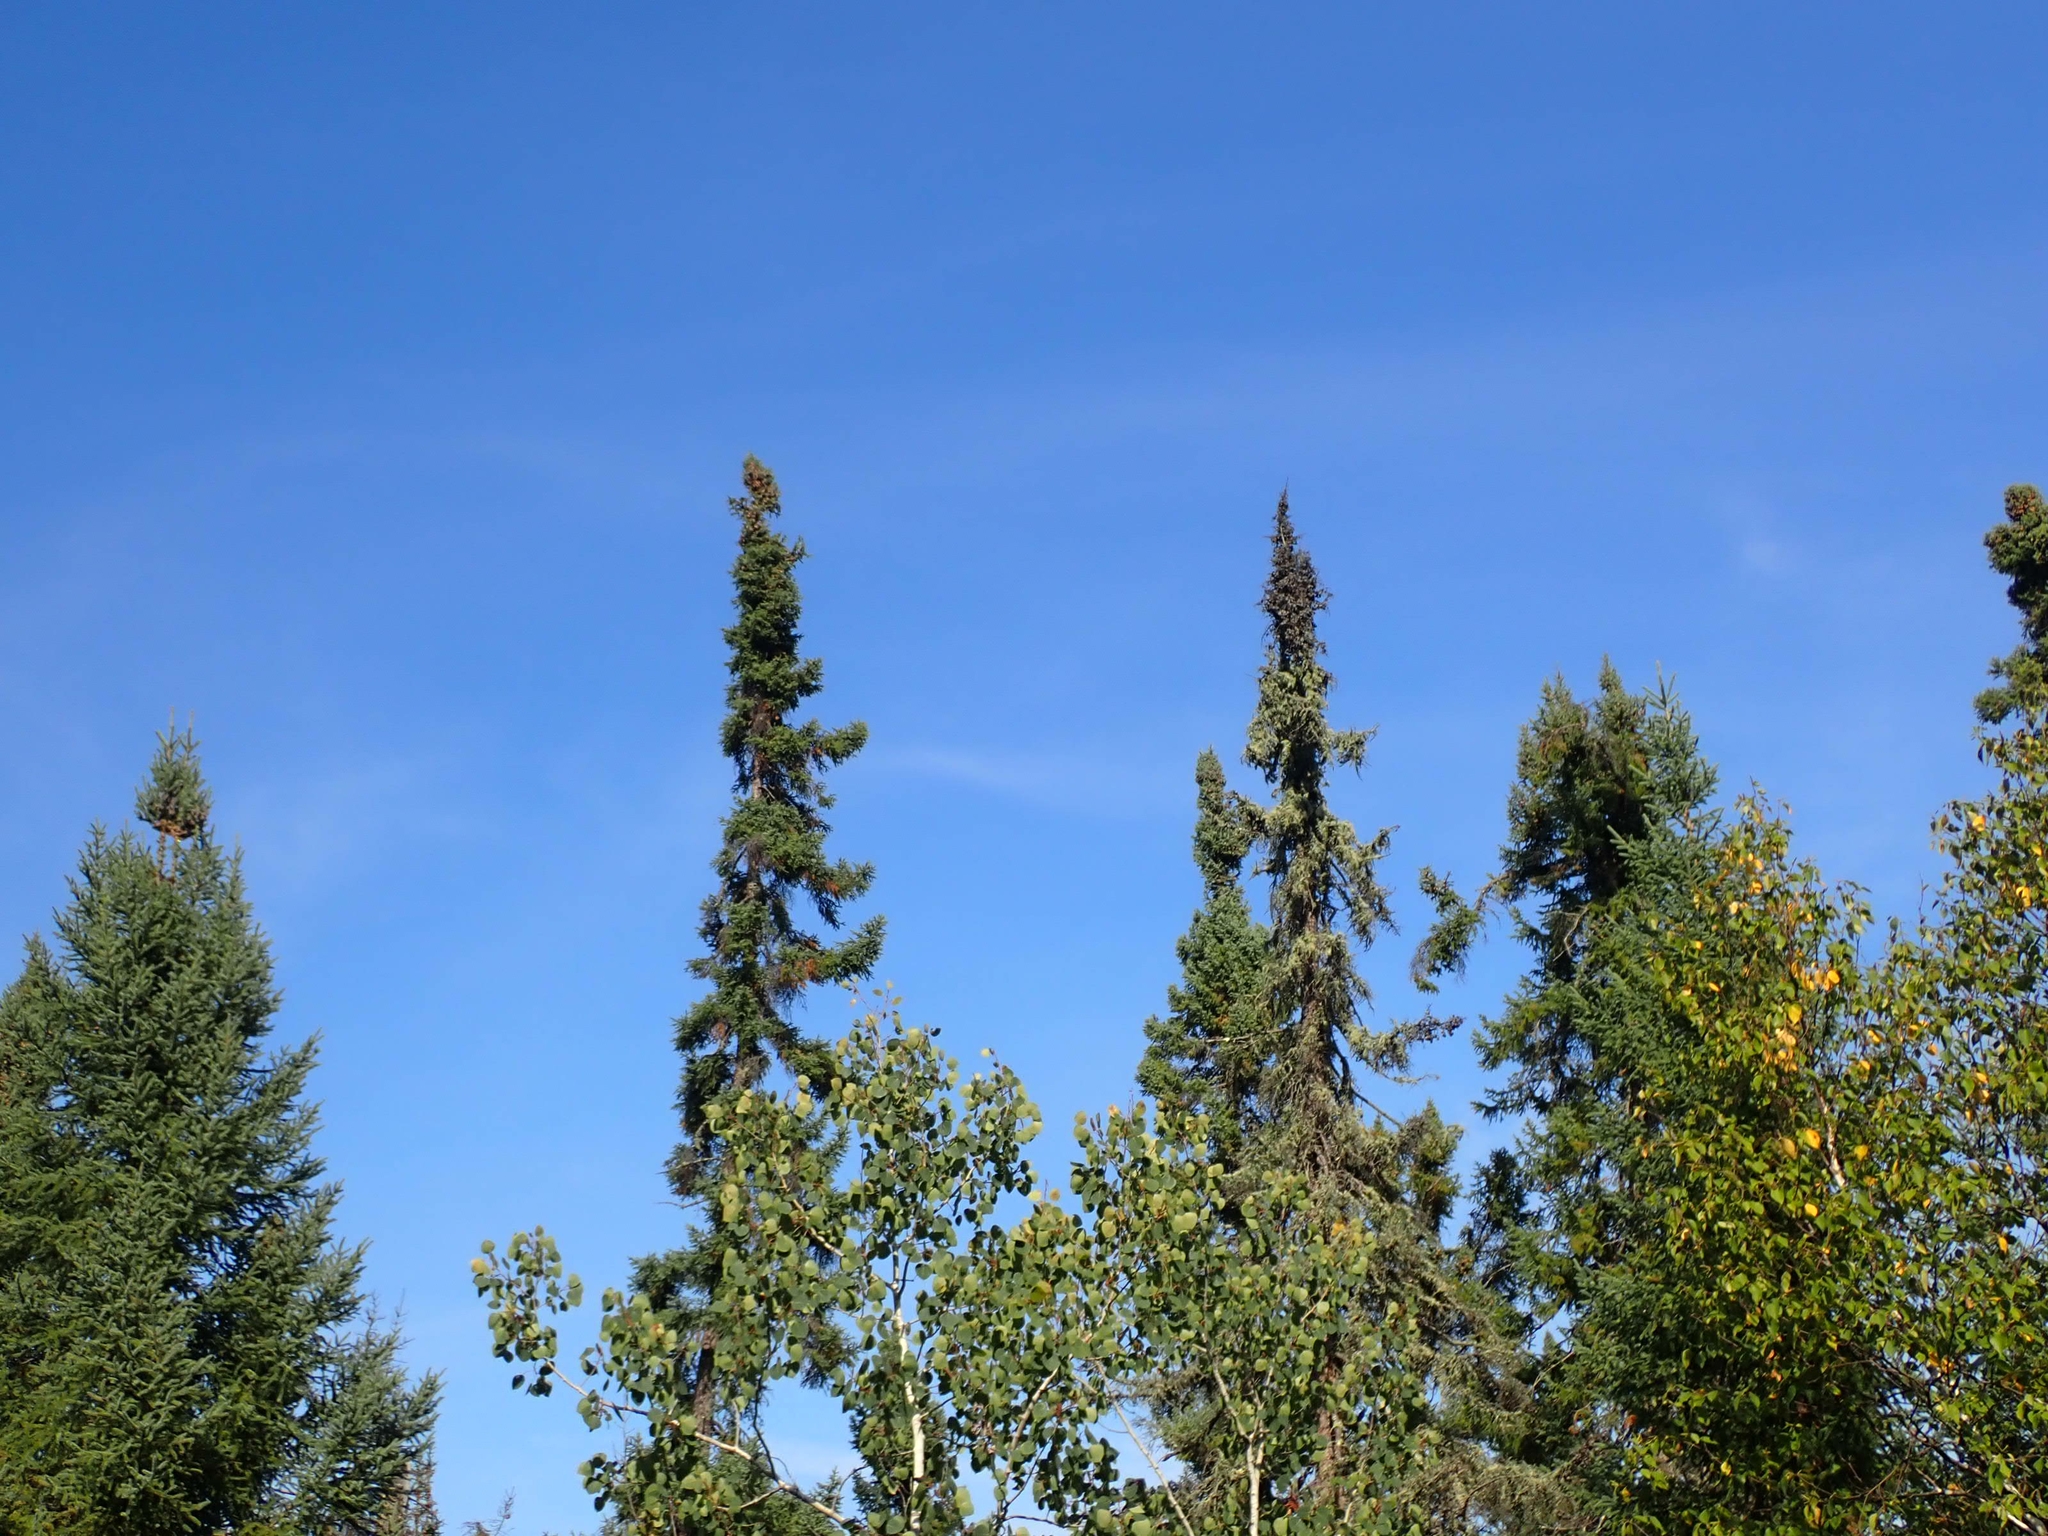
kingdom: Plantae
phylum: Tracheophyta
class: Pinopsida
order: Pinales
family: Pinaceae
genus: Picea
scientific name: Picea mariana
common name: Black spruce
